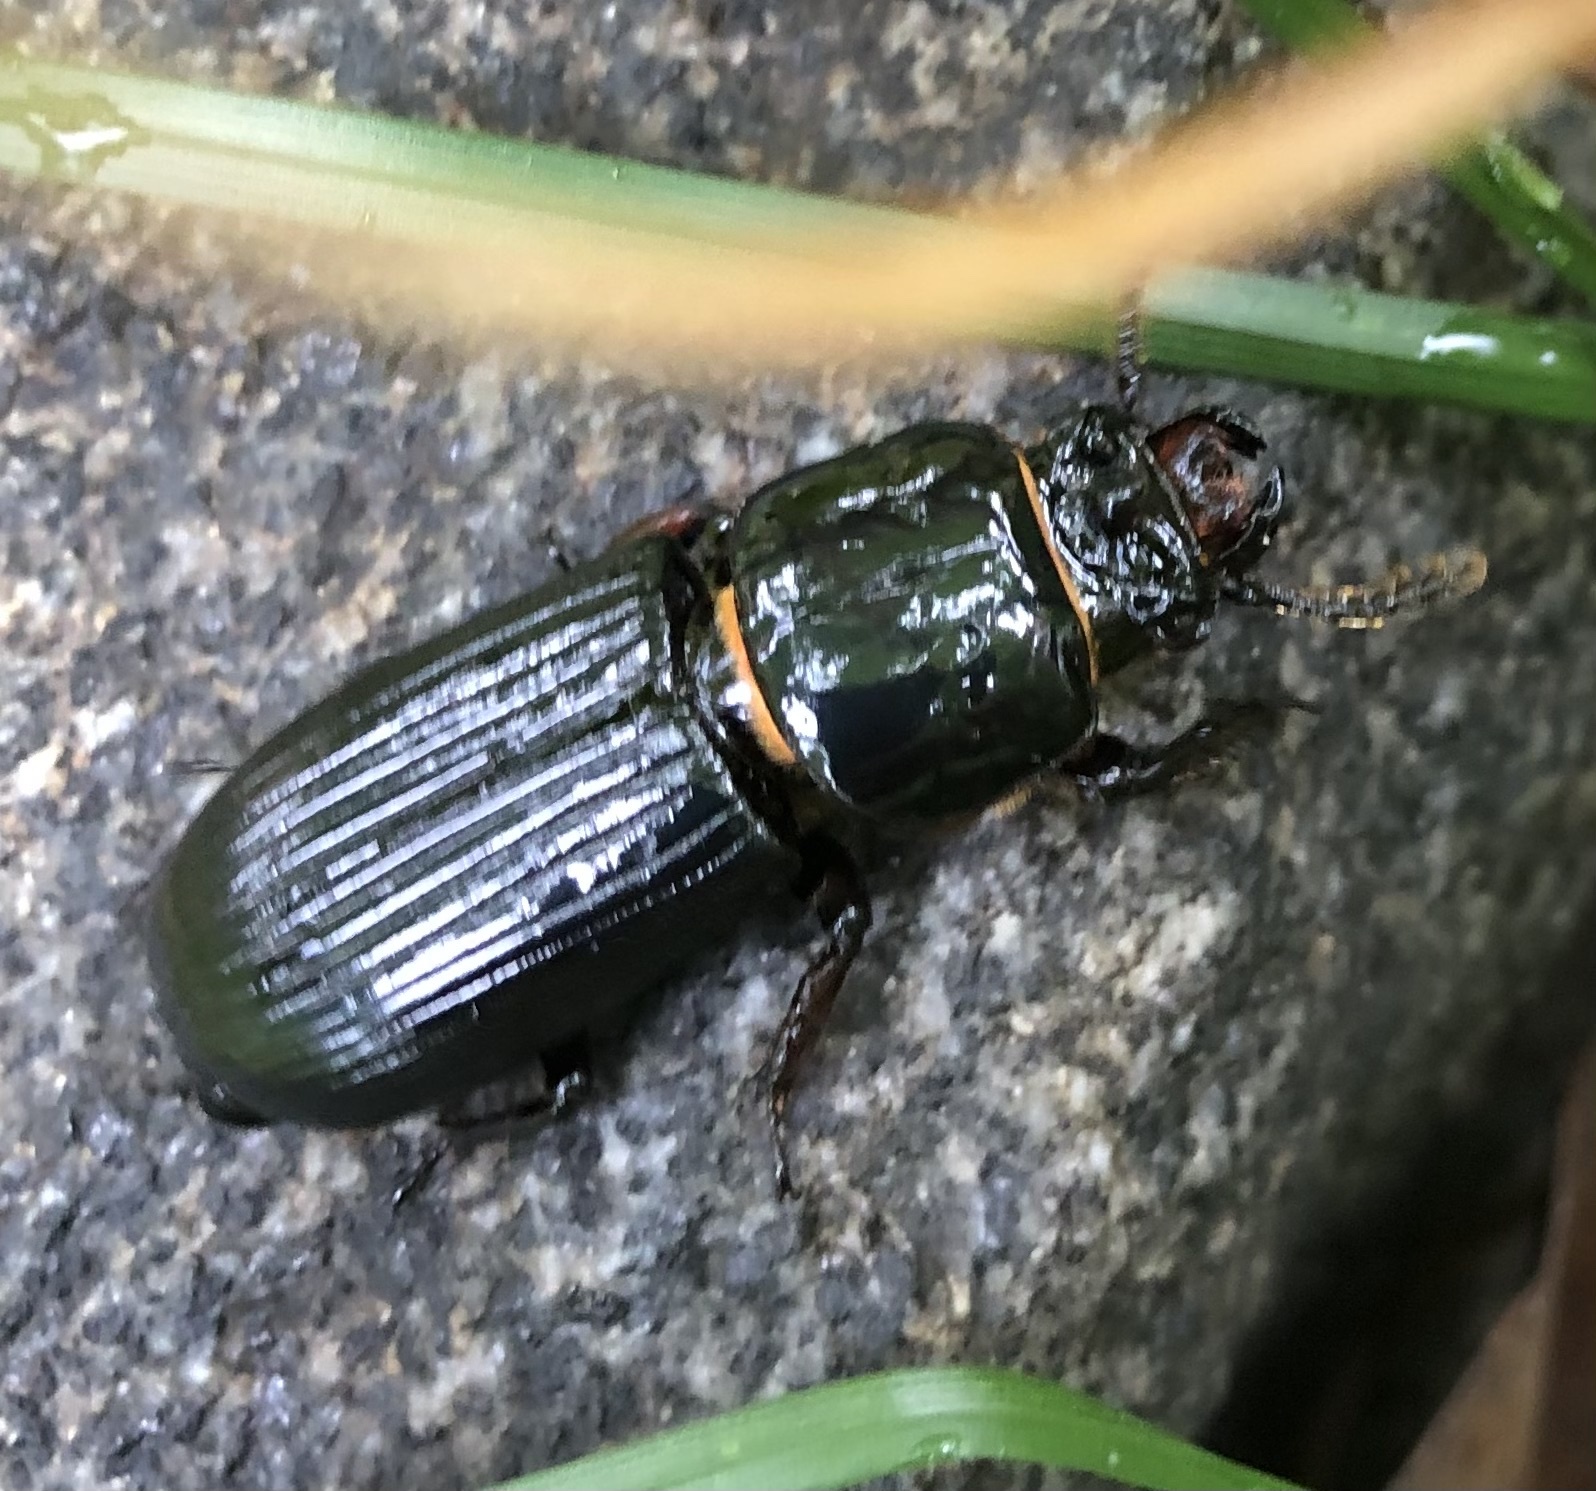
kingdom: Animalia
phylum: Arthropoda
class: Insecta
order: Coleoptera
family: Passalidae
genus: Odontotaenius
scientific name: Odontotaenius disjunctus
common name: Patent leather beetle
